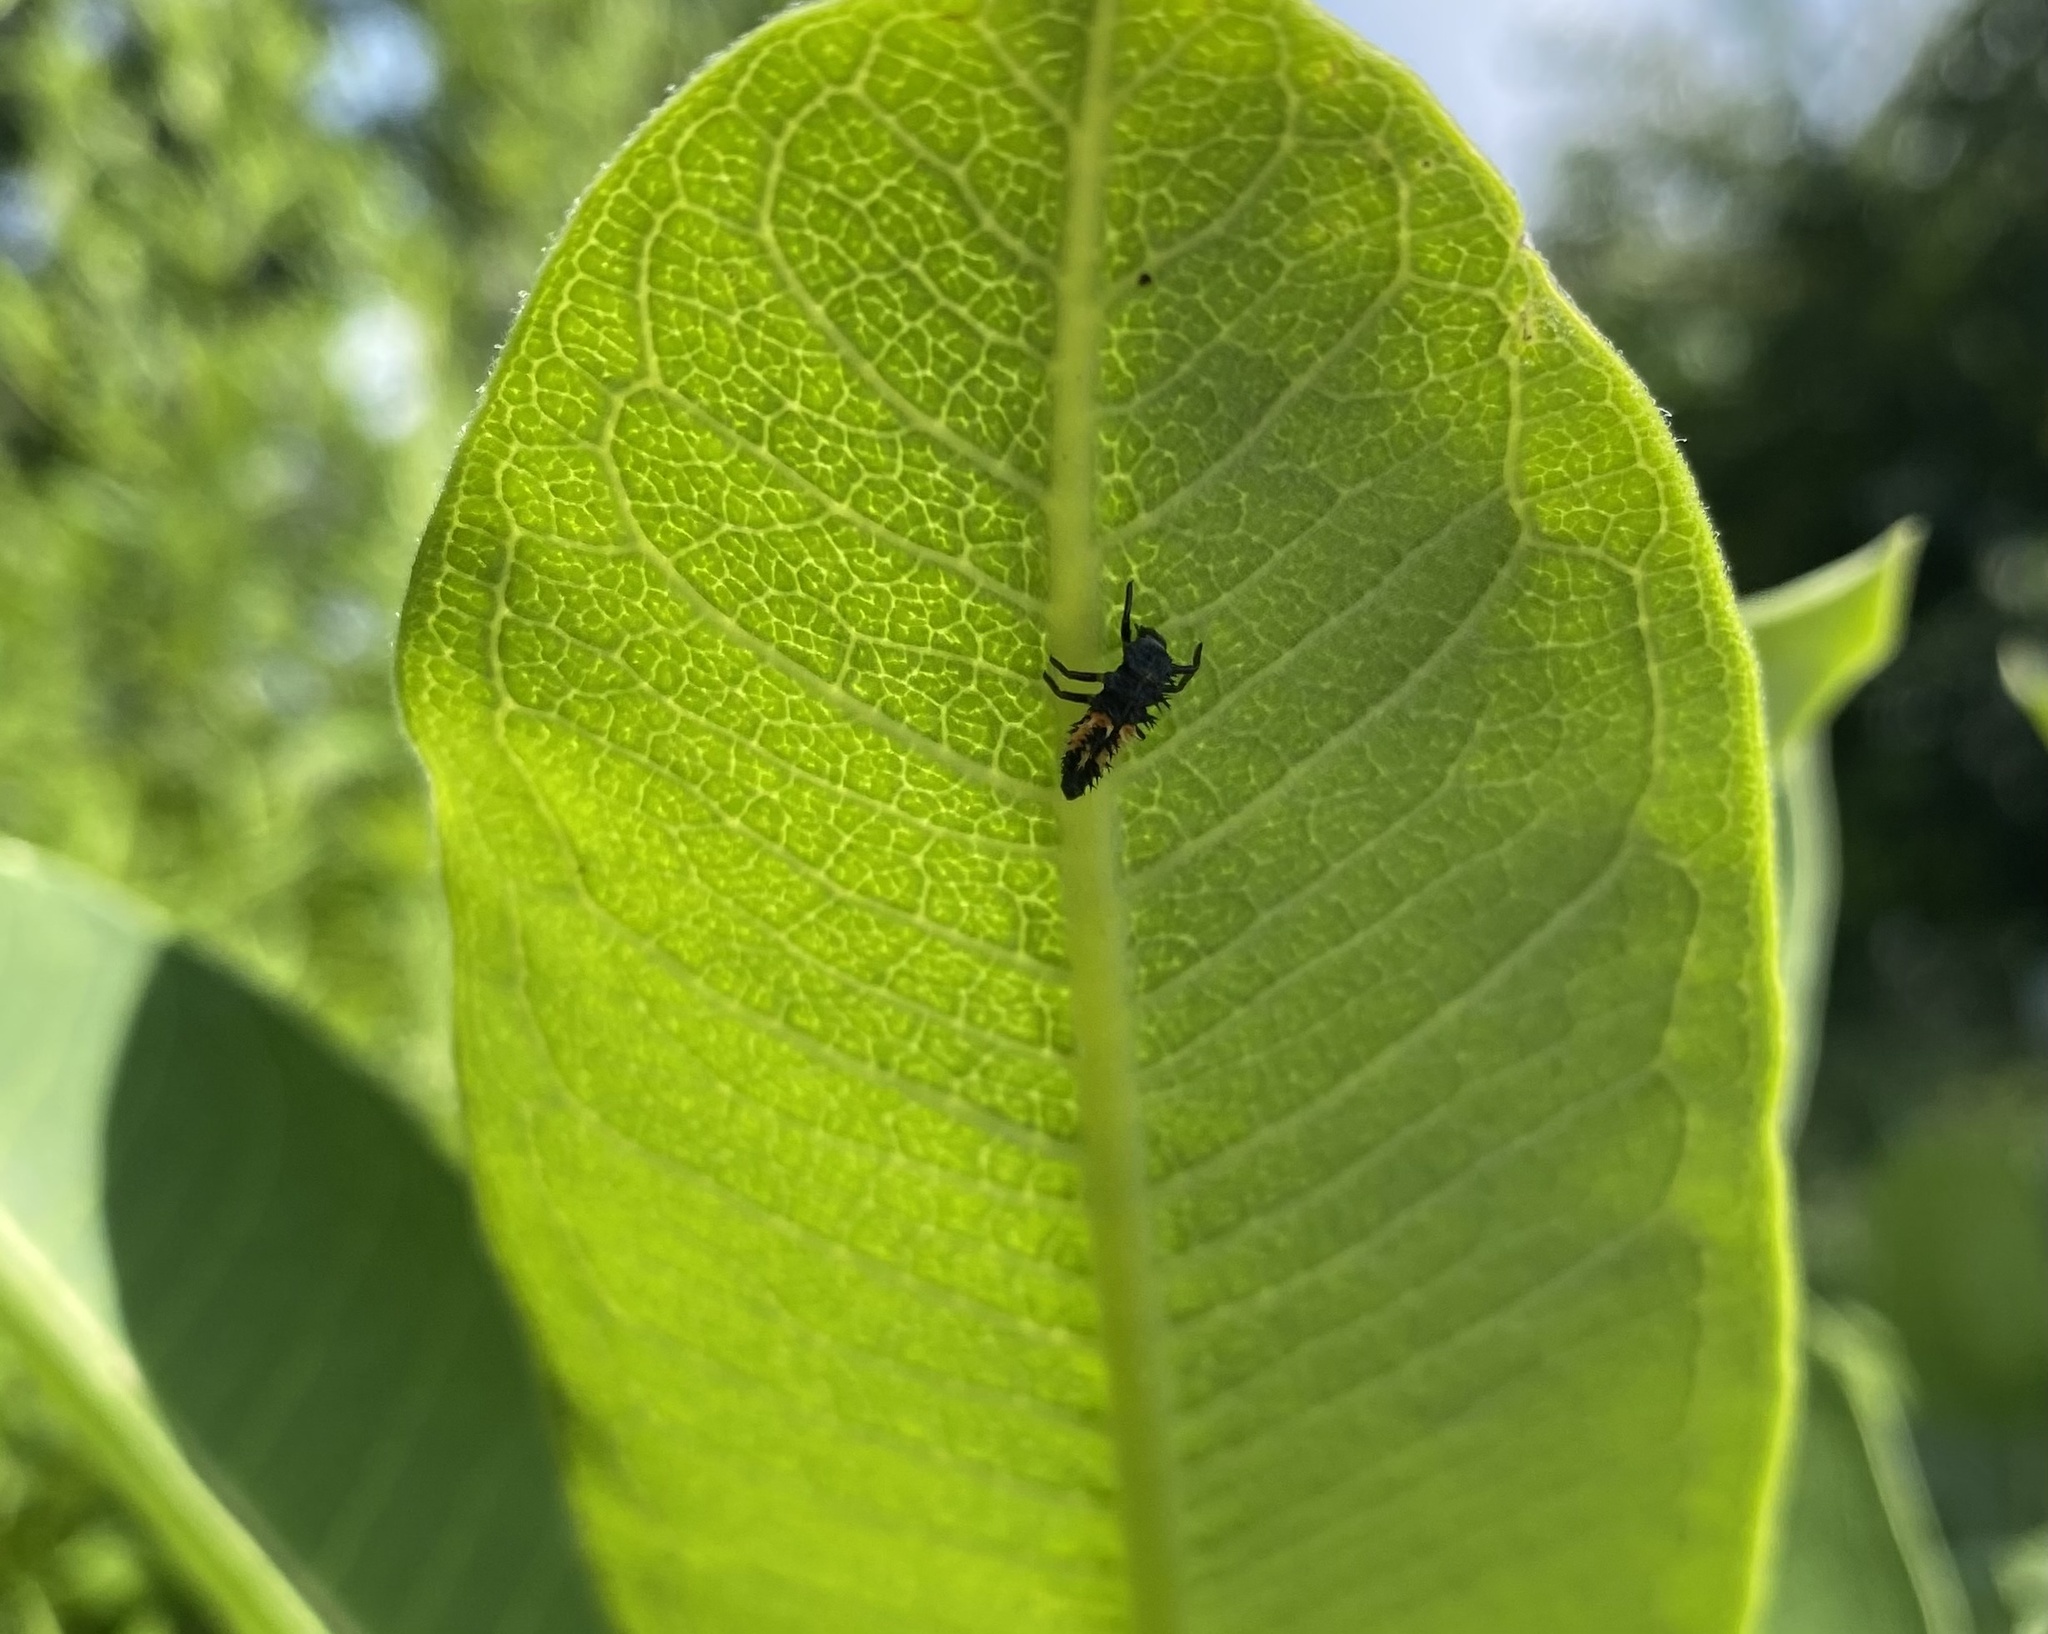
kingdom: Animalia
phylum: Arthropoda
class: Insecta
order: Coleoptera
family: Coccinellidae
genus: Harmonia
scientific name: Harmonia axyridis
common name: Harlequin ladybird
